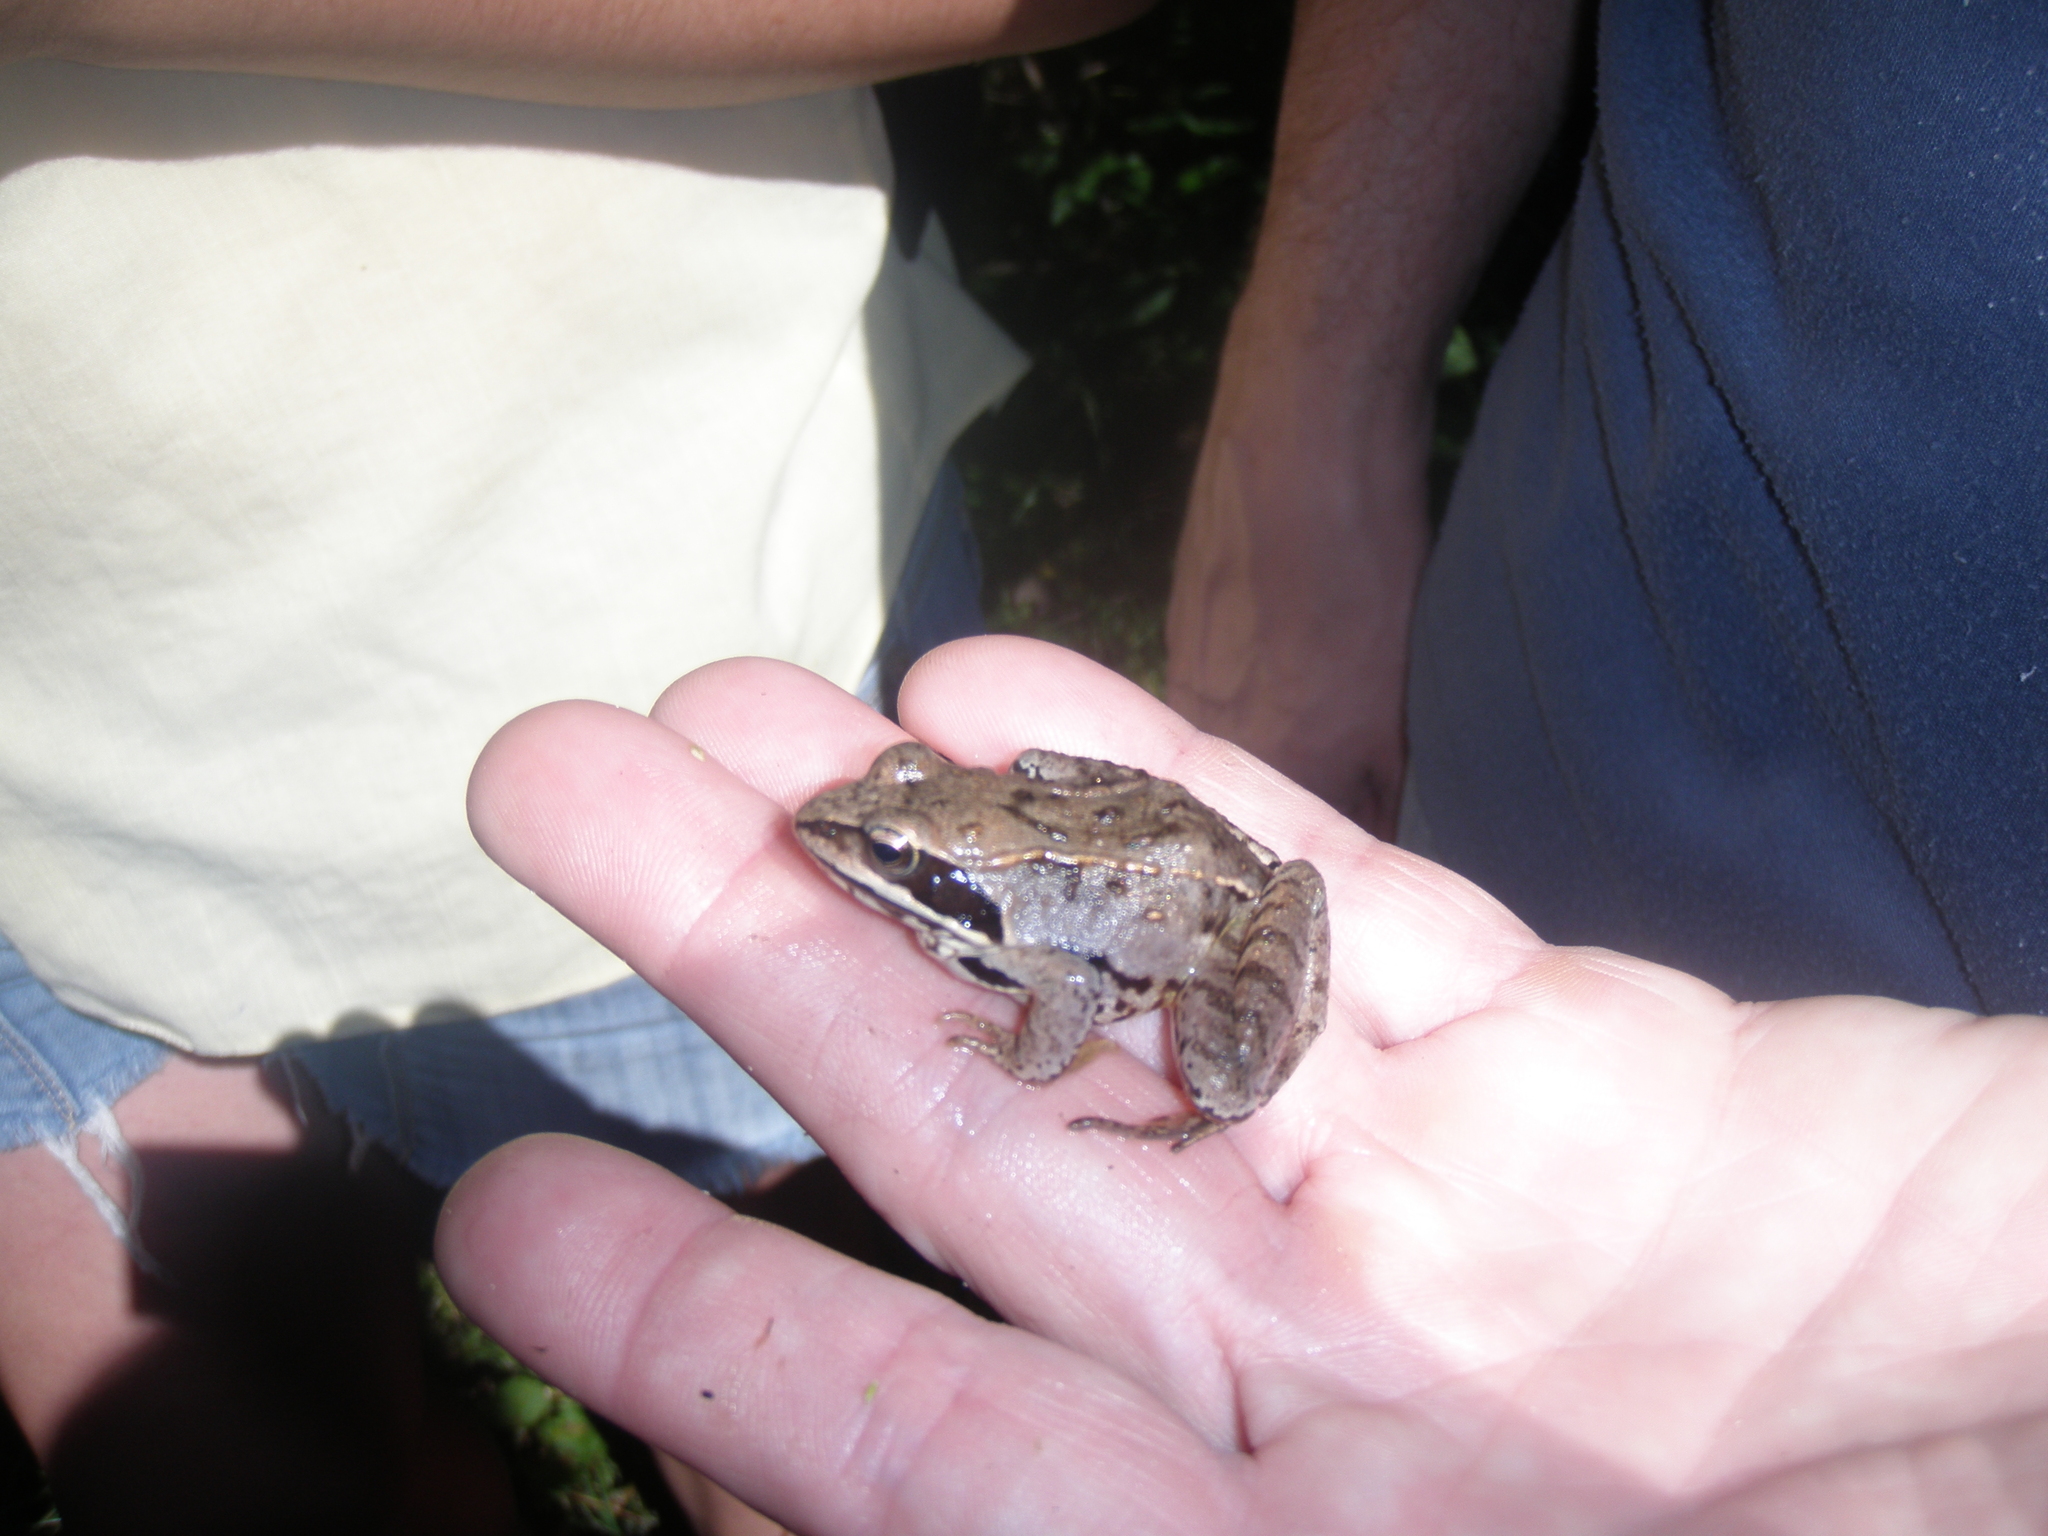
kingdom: Animalia
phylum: Chordata
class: Amphibia
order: Anura
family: Ranidae
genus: Rana
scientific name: Rana arvalis
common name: Moor frog
